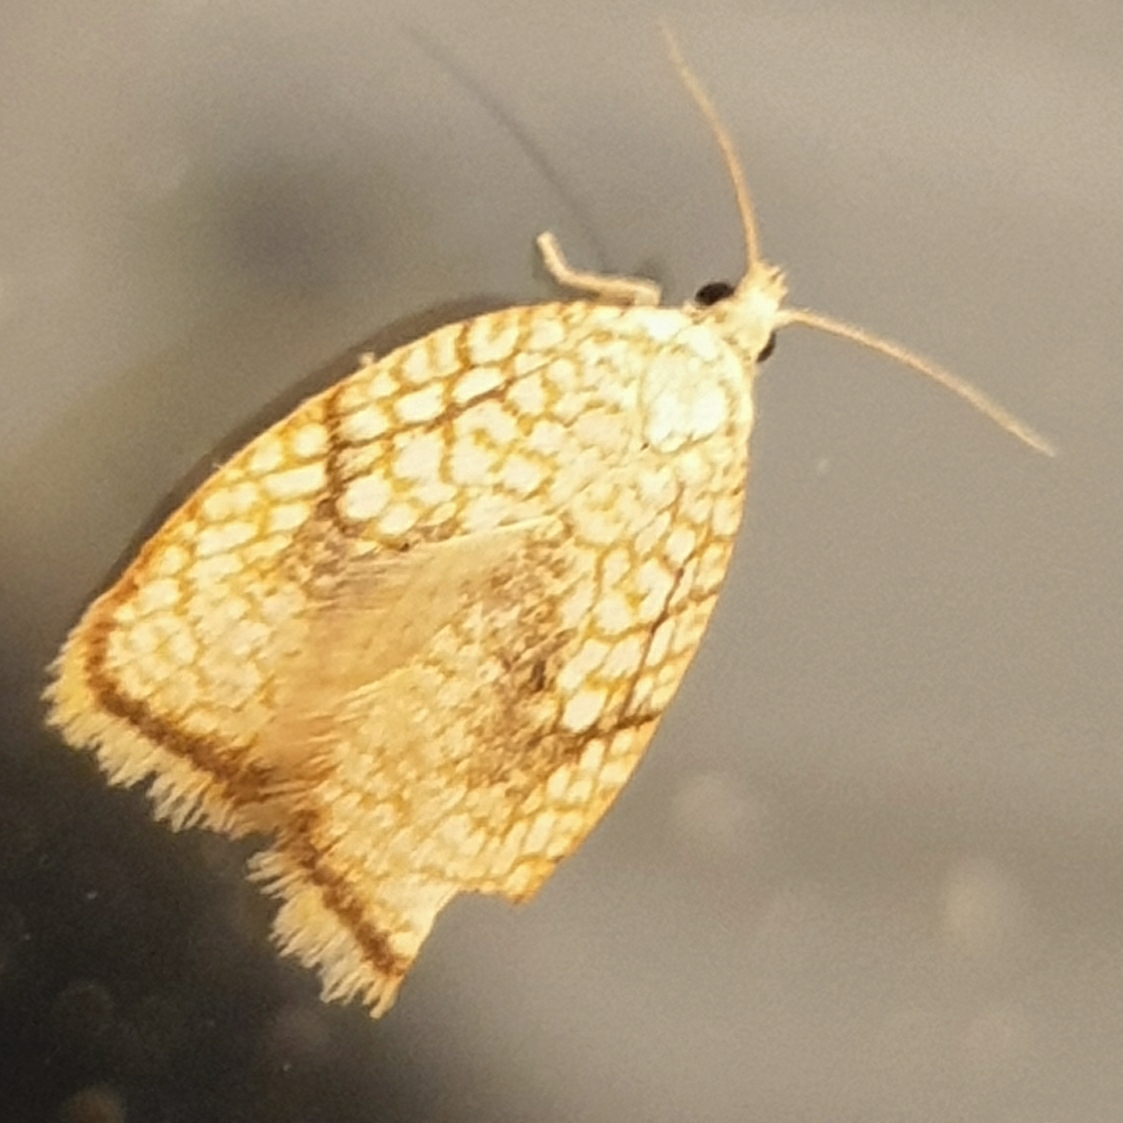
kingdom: Animalia
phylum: Arthropoda
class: Insecta
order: Lepidoptera
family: Tortricidae
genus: Acleris
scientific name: Acleris forsskaleana
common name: Maple button
